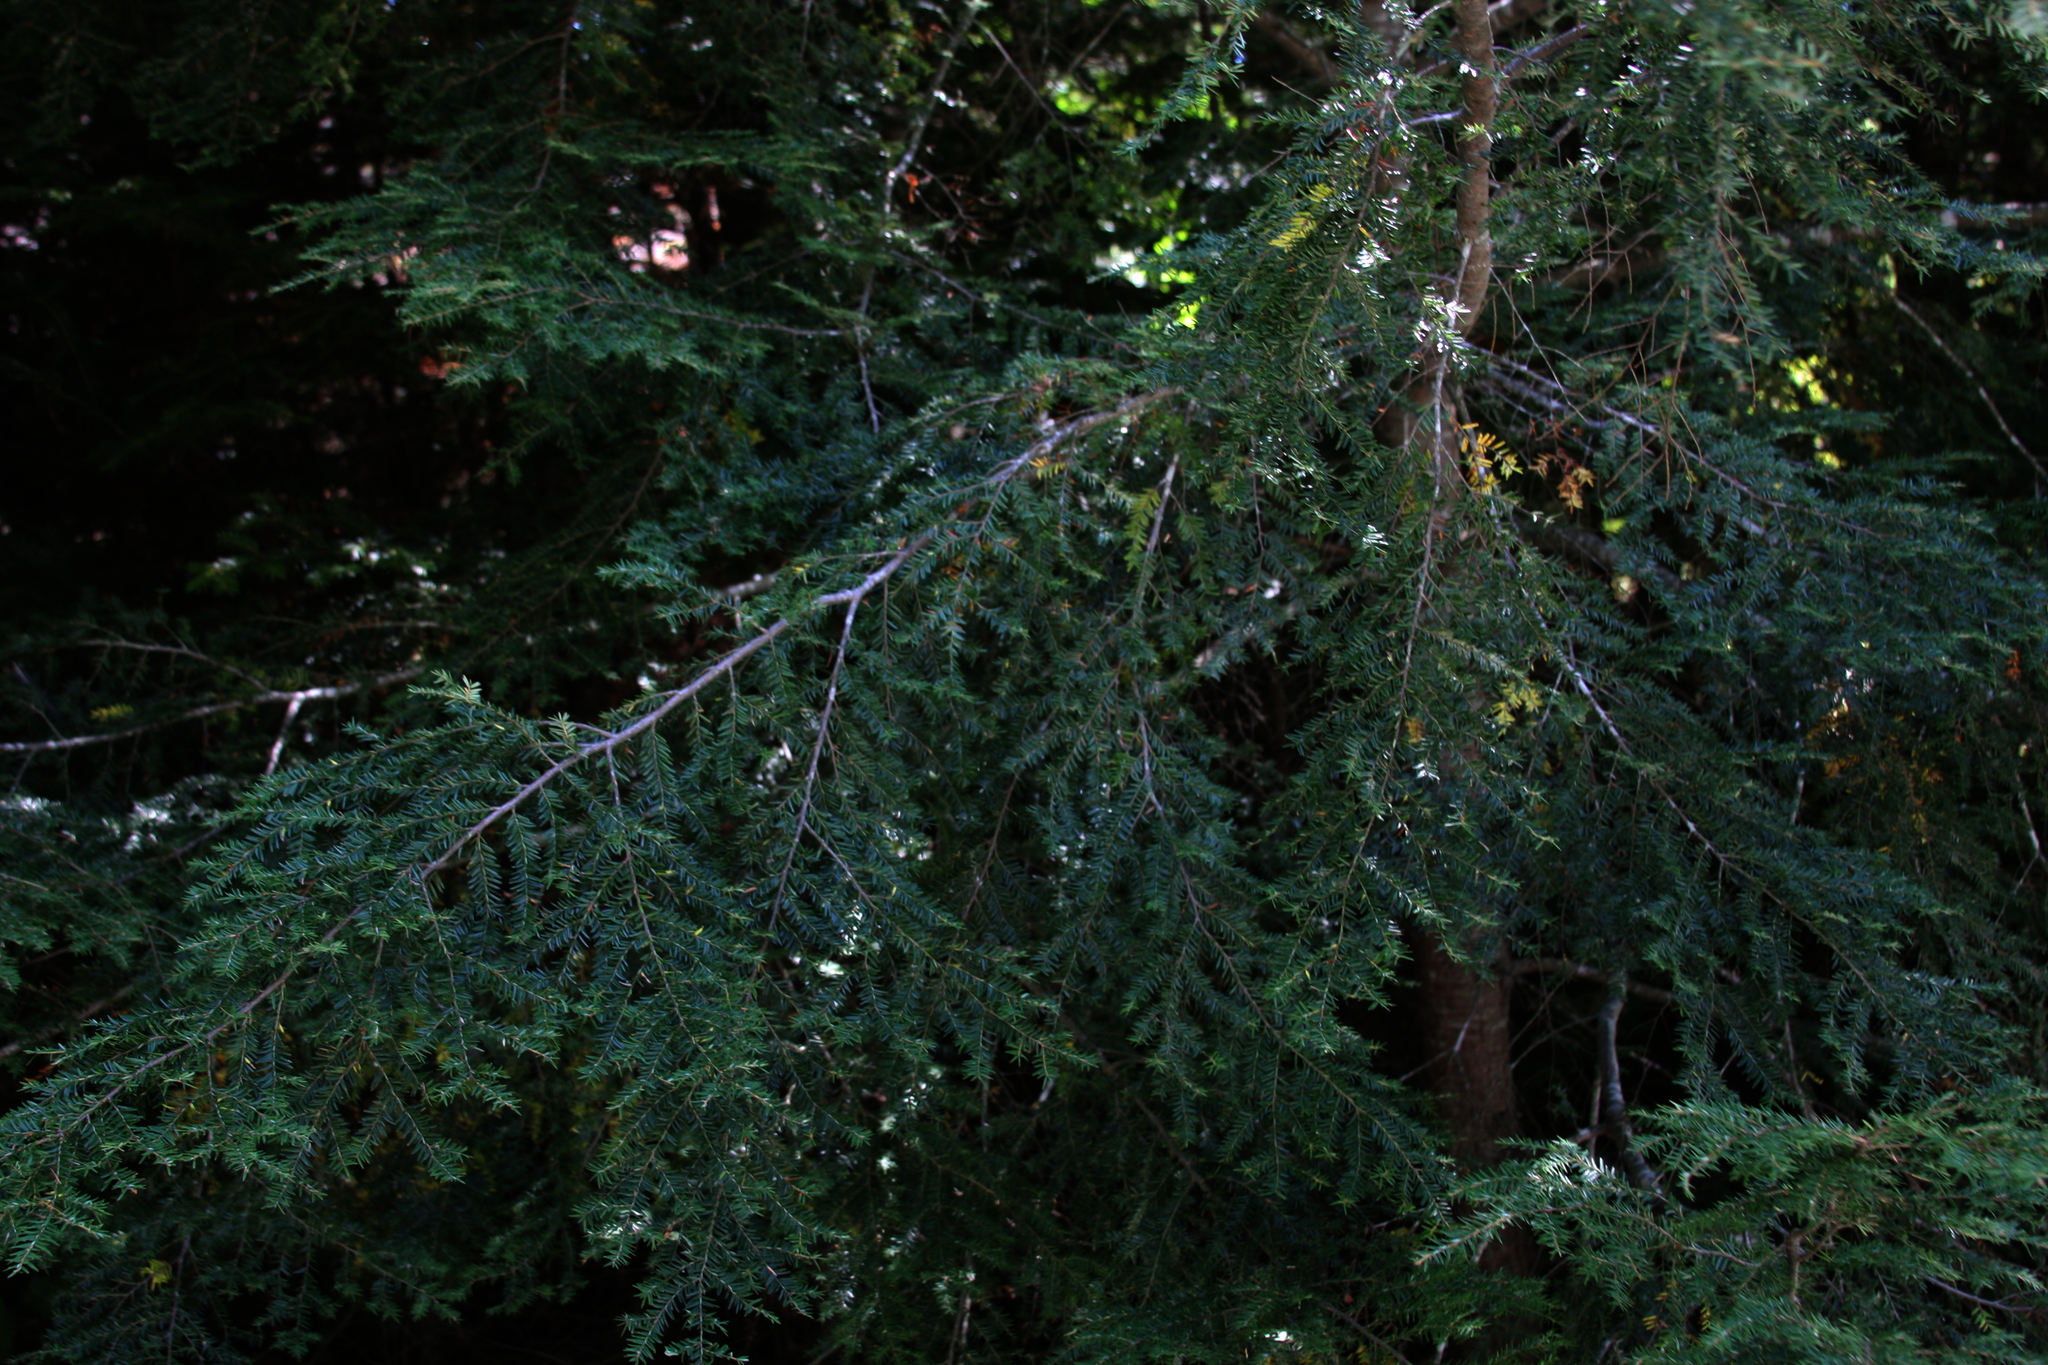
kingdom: Plantae
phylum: Tracheophyta
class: Pinopsida
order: Pinales
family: Pinaceae
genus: Tsuga
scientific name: Tsuga canadensis
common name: Eastern hemlock
